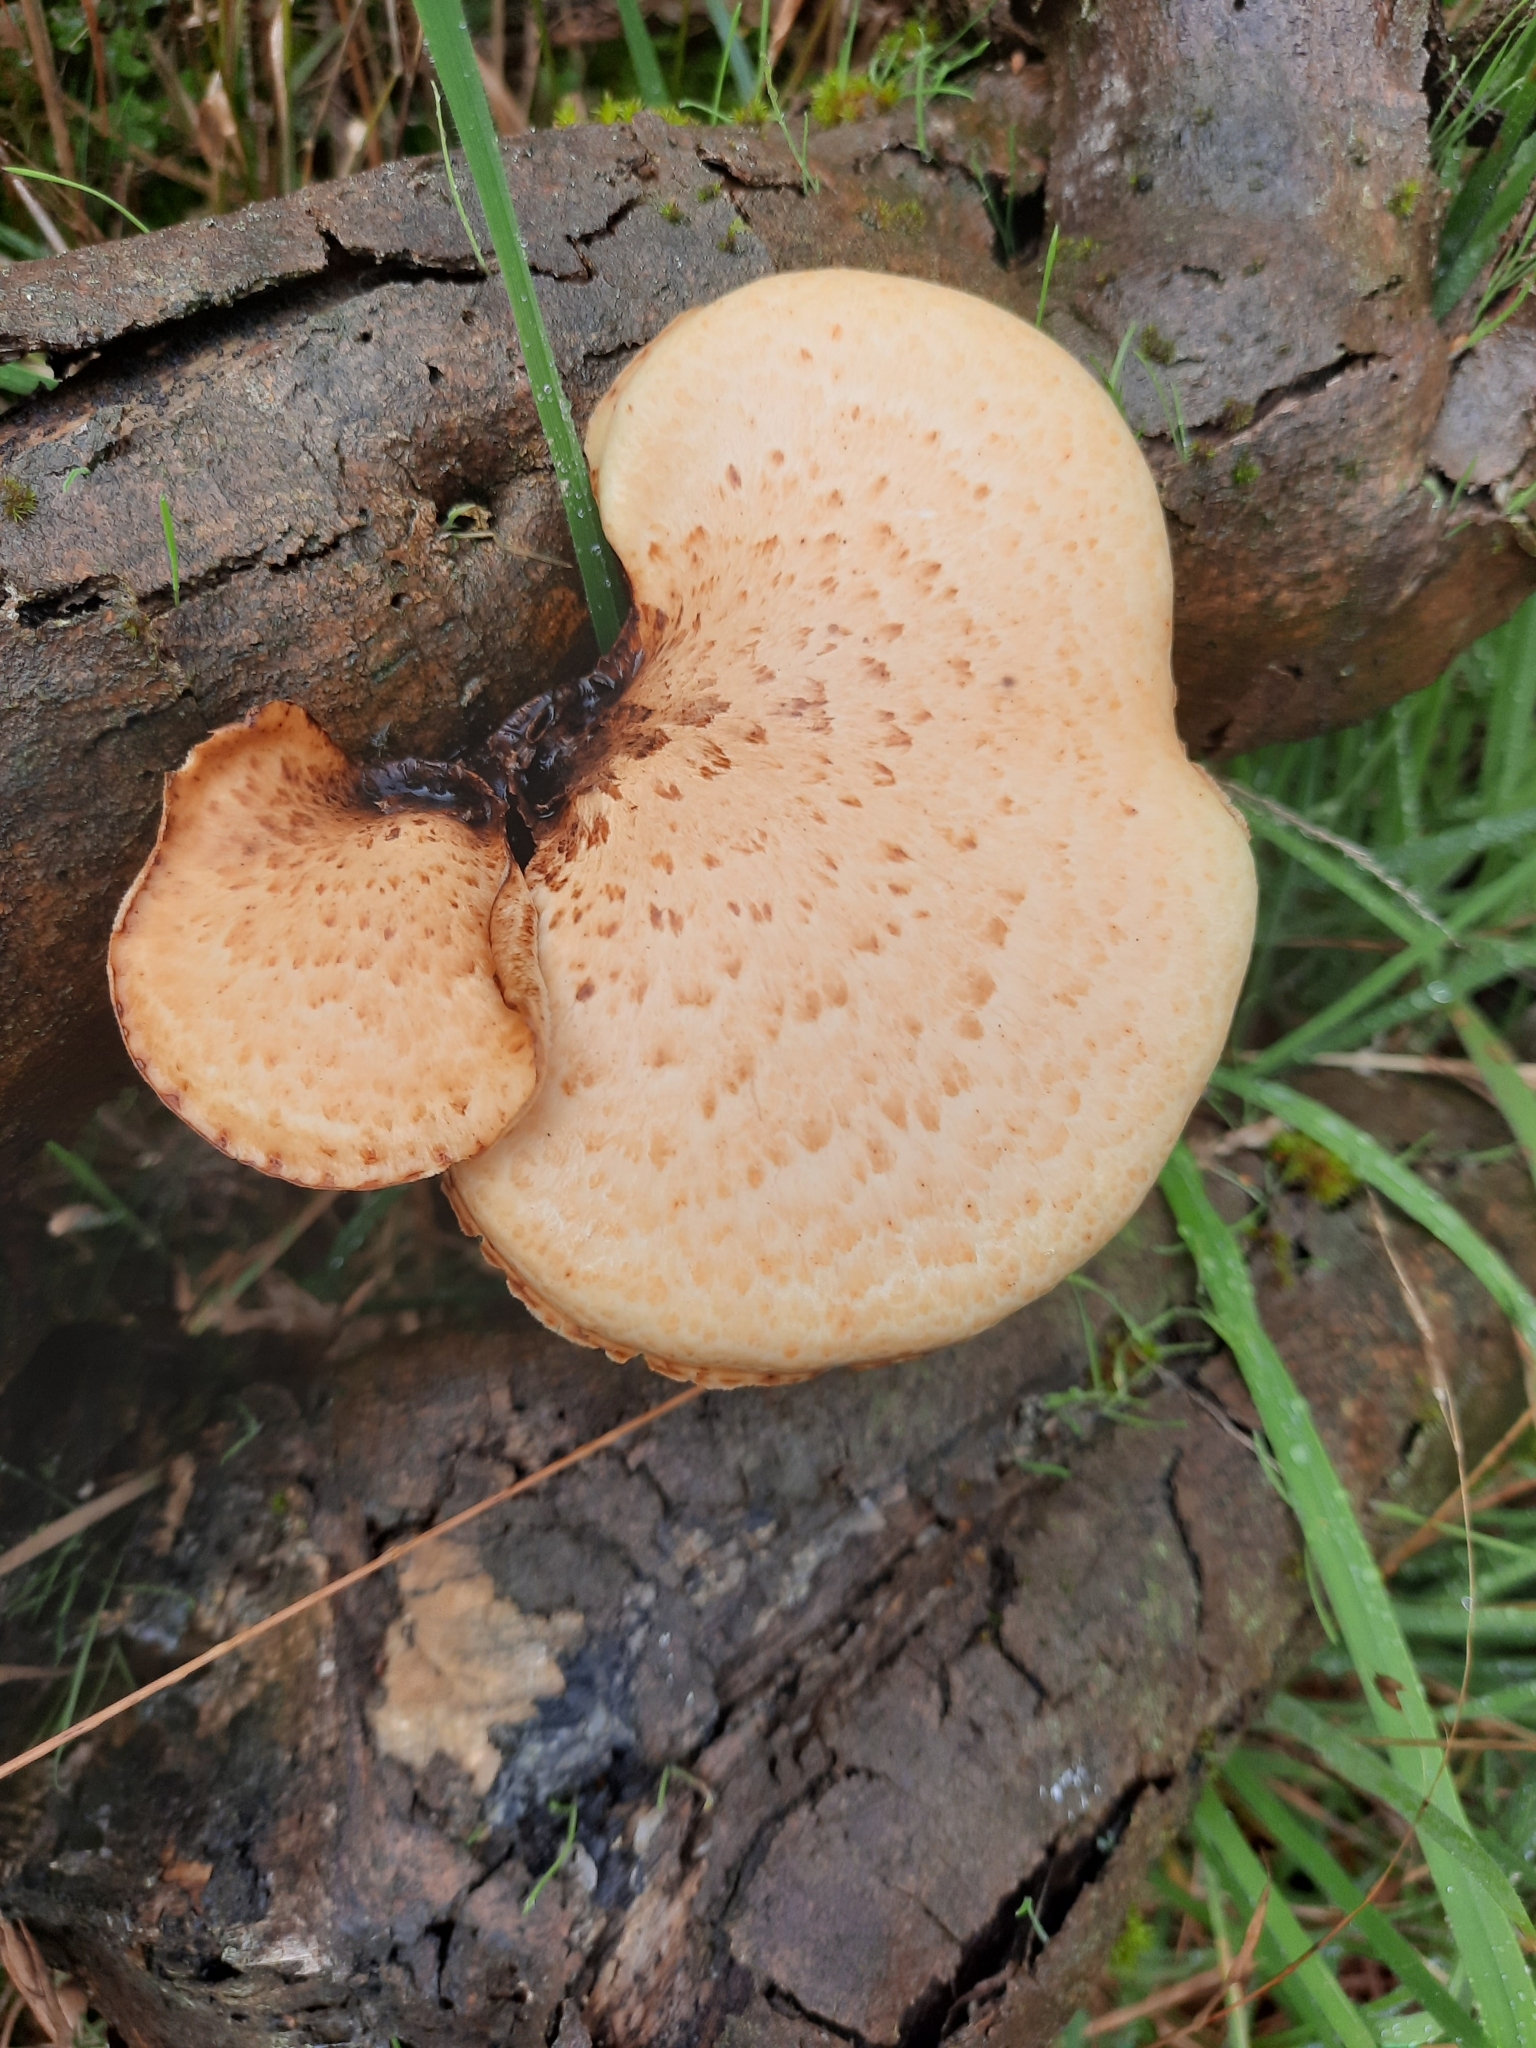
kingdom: Fungi
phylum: Basidiomycota
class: Agaricomycetes
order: Polyporales
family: Polyporaceae
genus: Cerioporus
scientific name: Cerioporus squamosus
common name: Dryad's saddle
